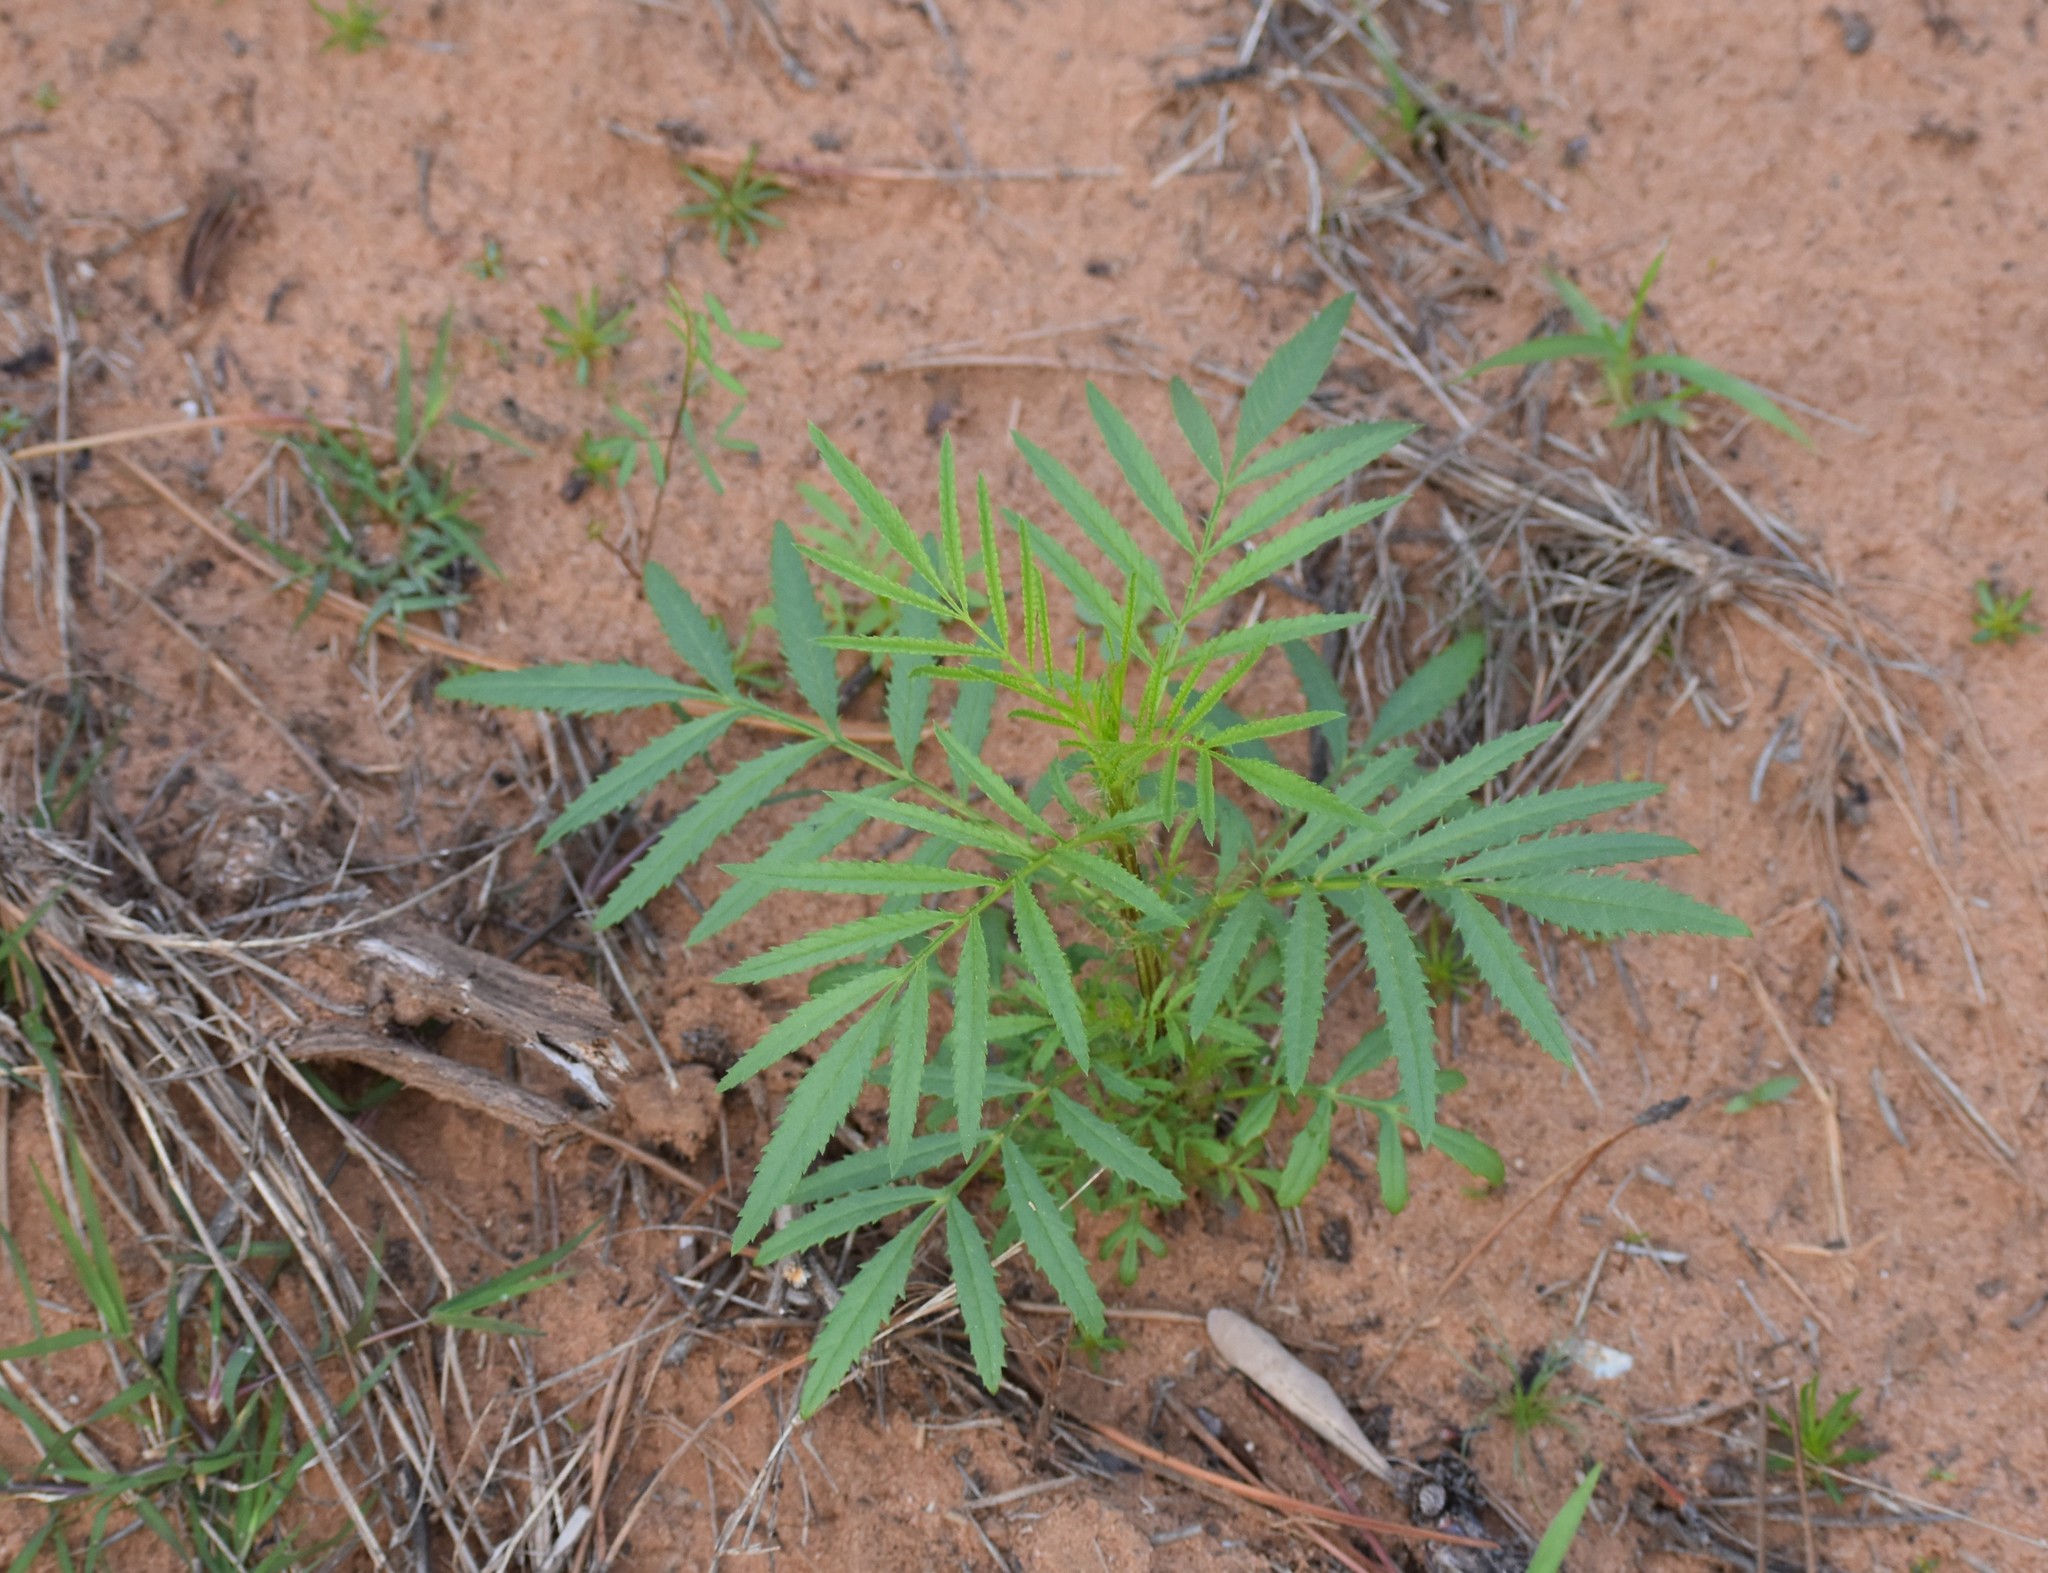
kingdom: Plantae
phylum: Tracheophyta
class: Magnoliopsida
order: Asterales
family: Asteraceae
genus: Tagetes
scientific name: Tagetes minuta
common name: Muster john henry
